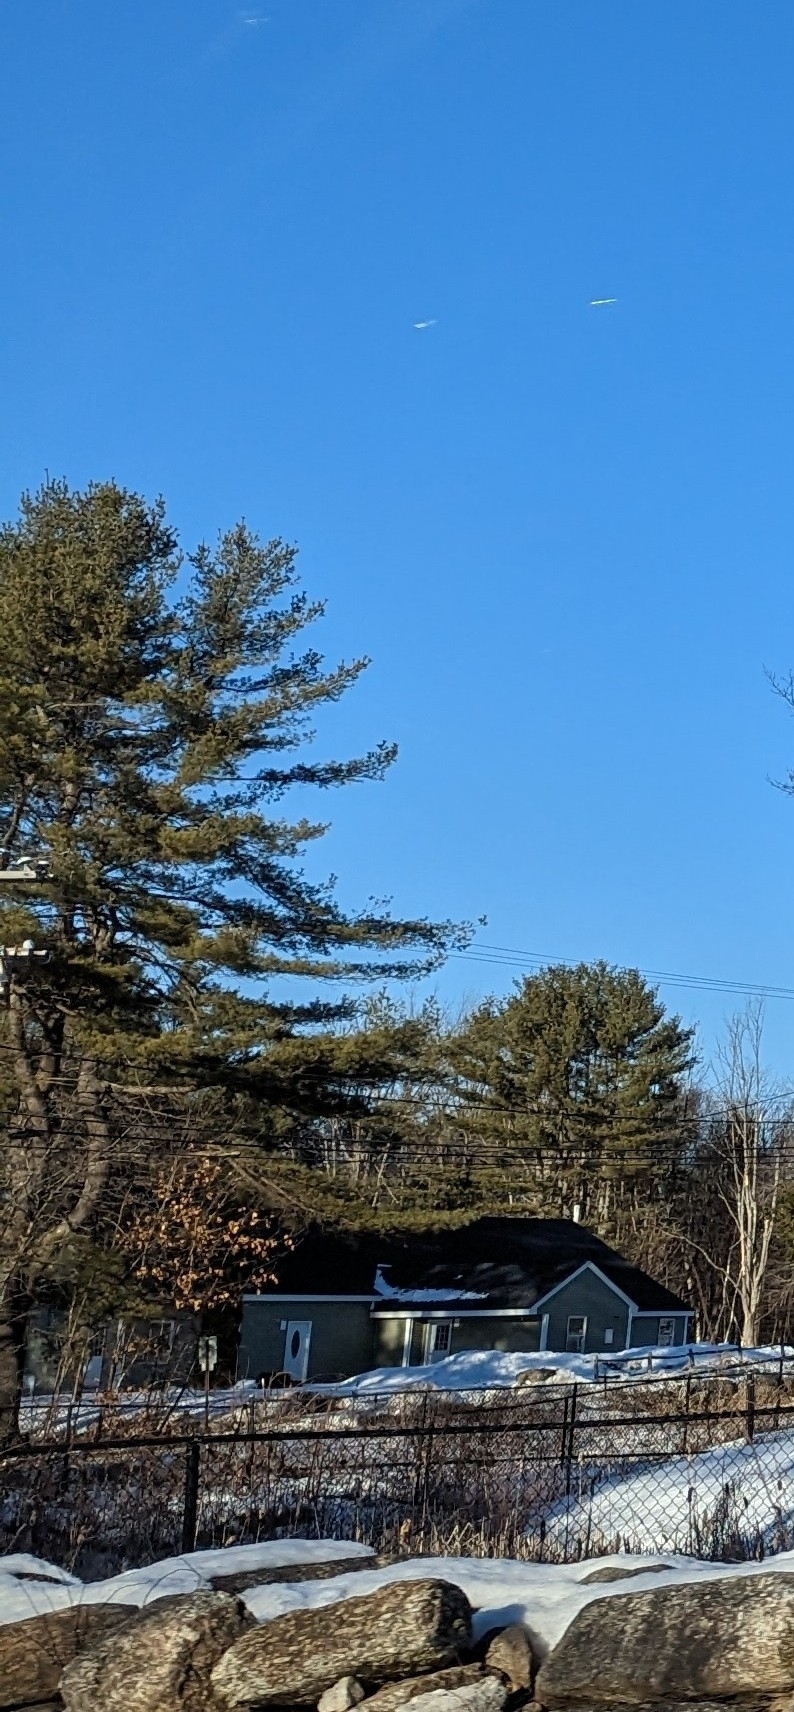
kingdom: Plantae
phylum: Tracheophyta
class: Pinopsida
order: Pinales
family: Pinaceae
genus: Pinus
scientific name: Pinus strobus
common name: Weymouth pine
